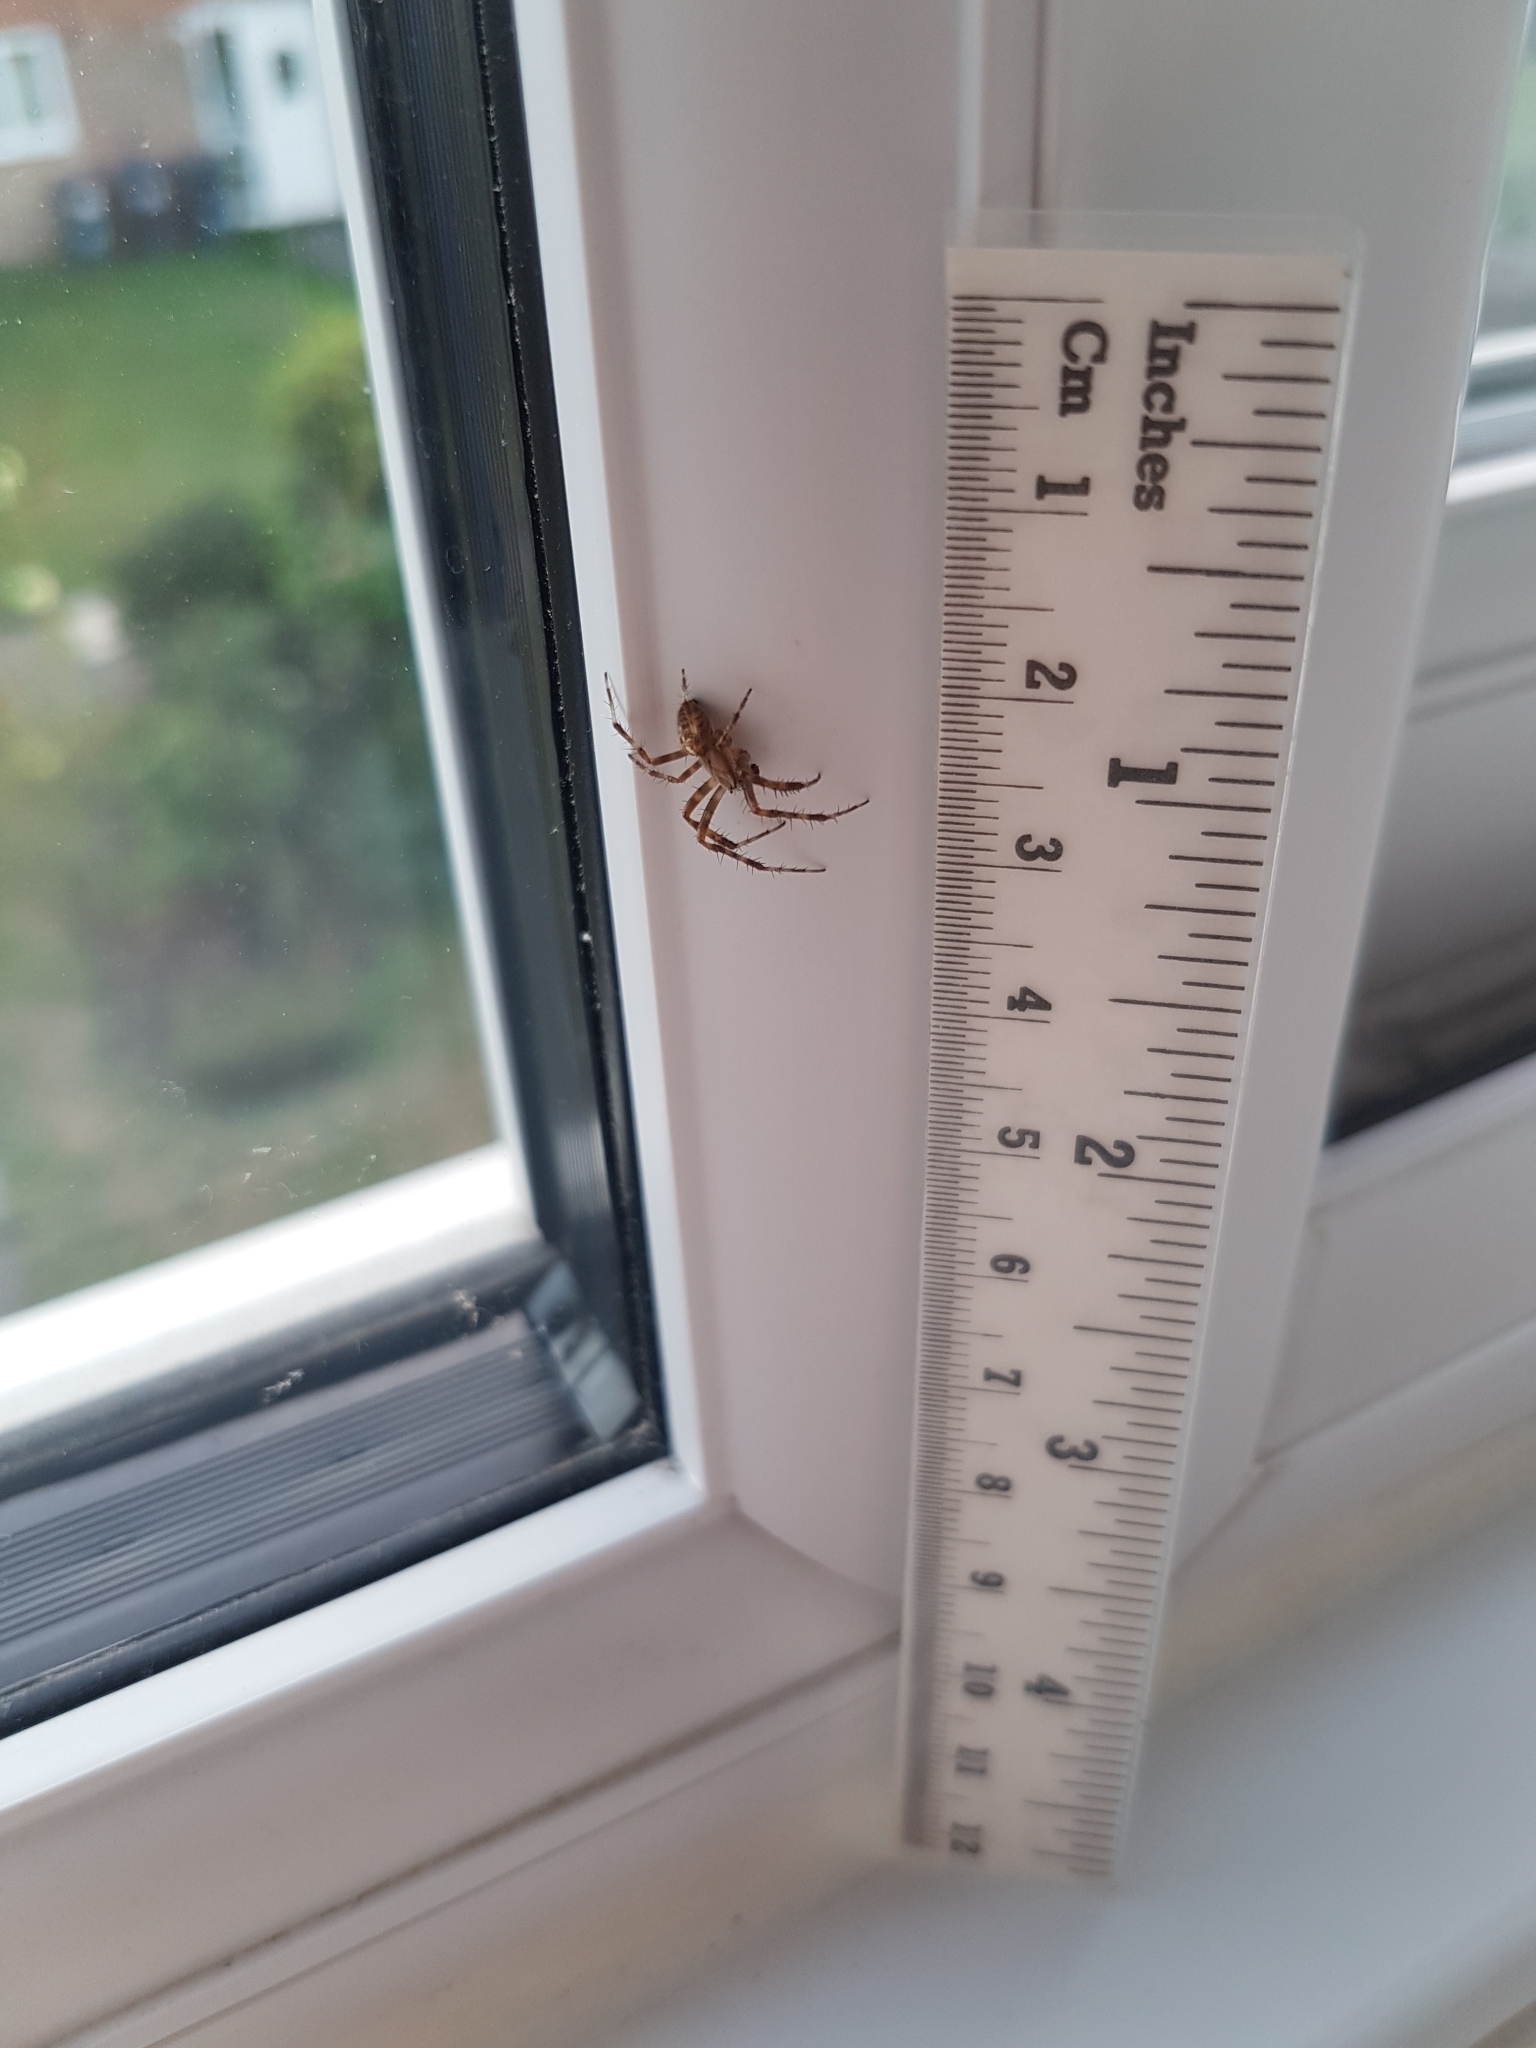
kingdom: Animalia
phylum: Arthropoda
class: Arachnida
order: Araneae
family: Araneidae
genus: Araneus
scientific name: Araneus diadematus
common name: Cross orbweaver
